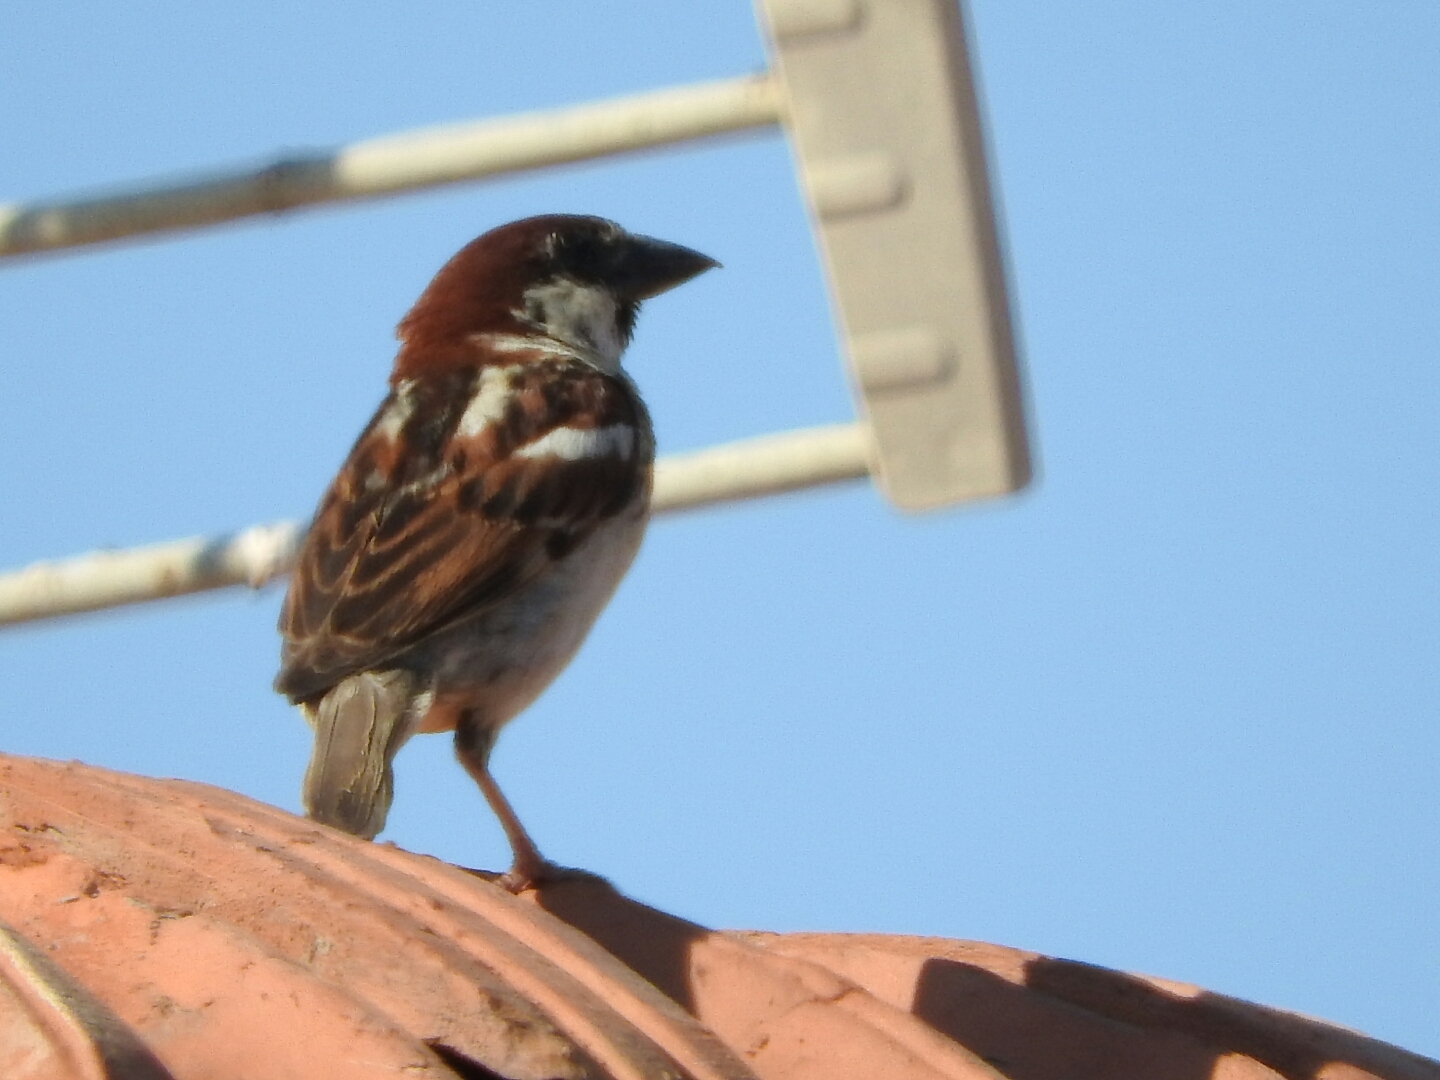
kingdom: Animalia
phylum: Chordata
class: Aves
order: Passeriformes
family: Passeridae
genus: Passer
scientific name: Passer italiae
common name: Italian sparrow
